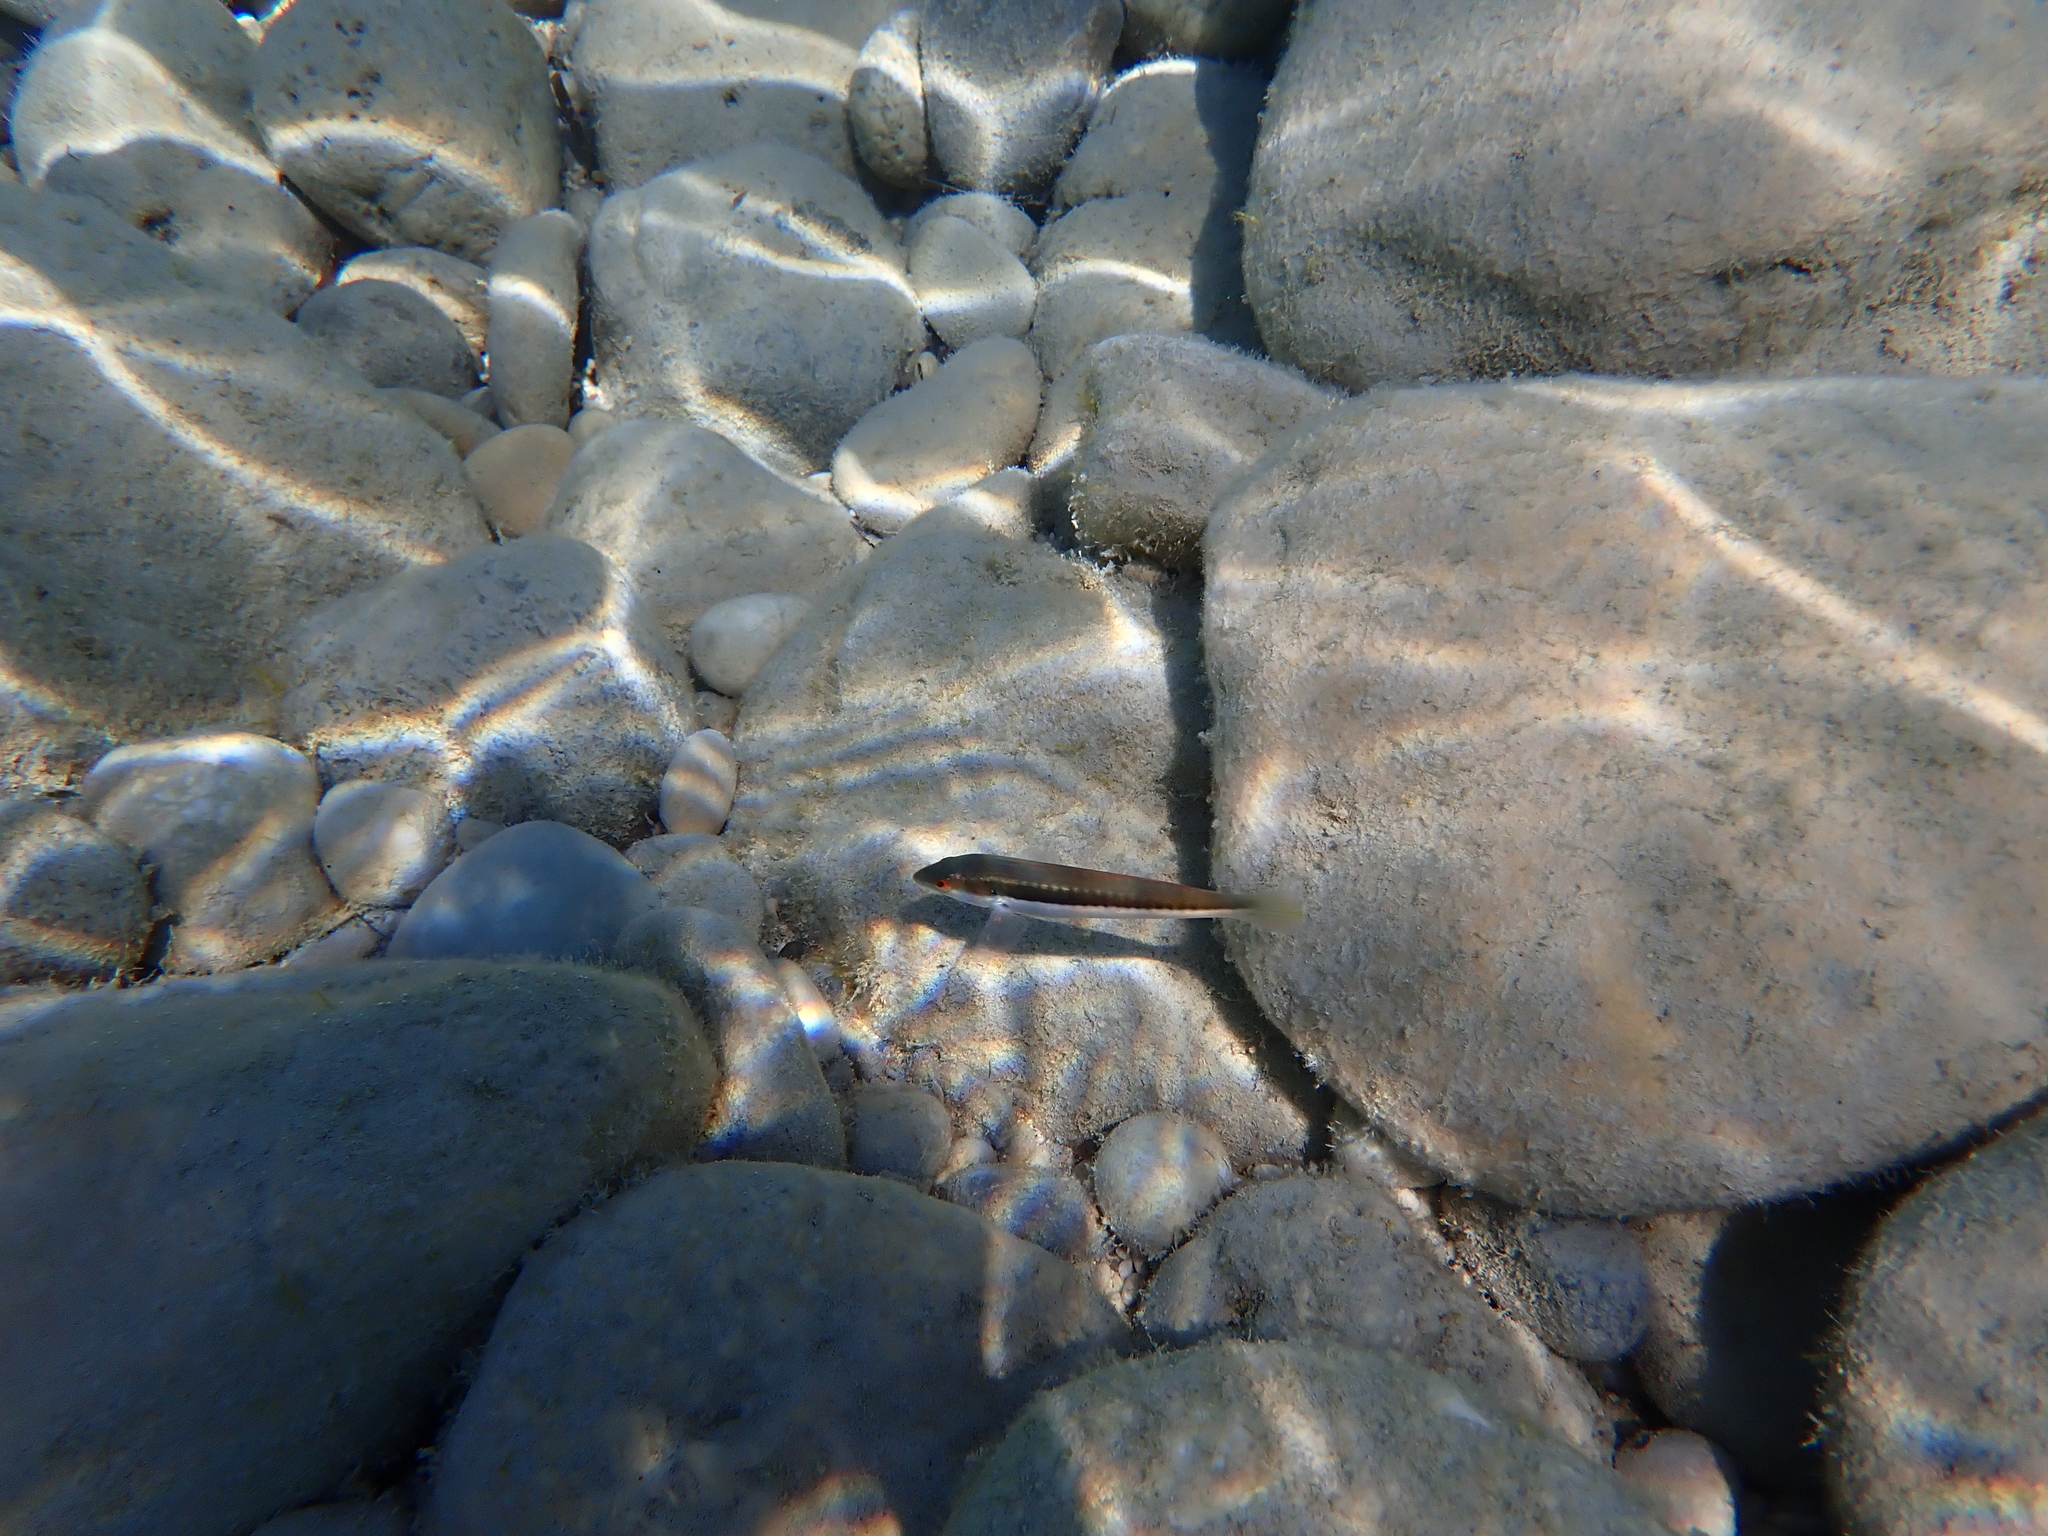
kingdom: Animalia
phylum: Chordata
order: Perciformes
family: Labridae
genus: Coris
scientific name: Coris julis
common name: Rainbow wrasse
